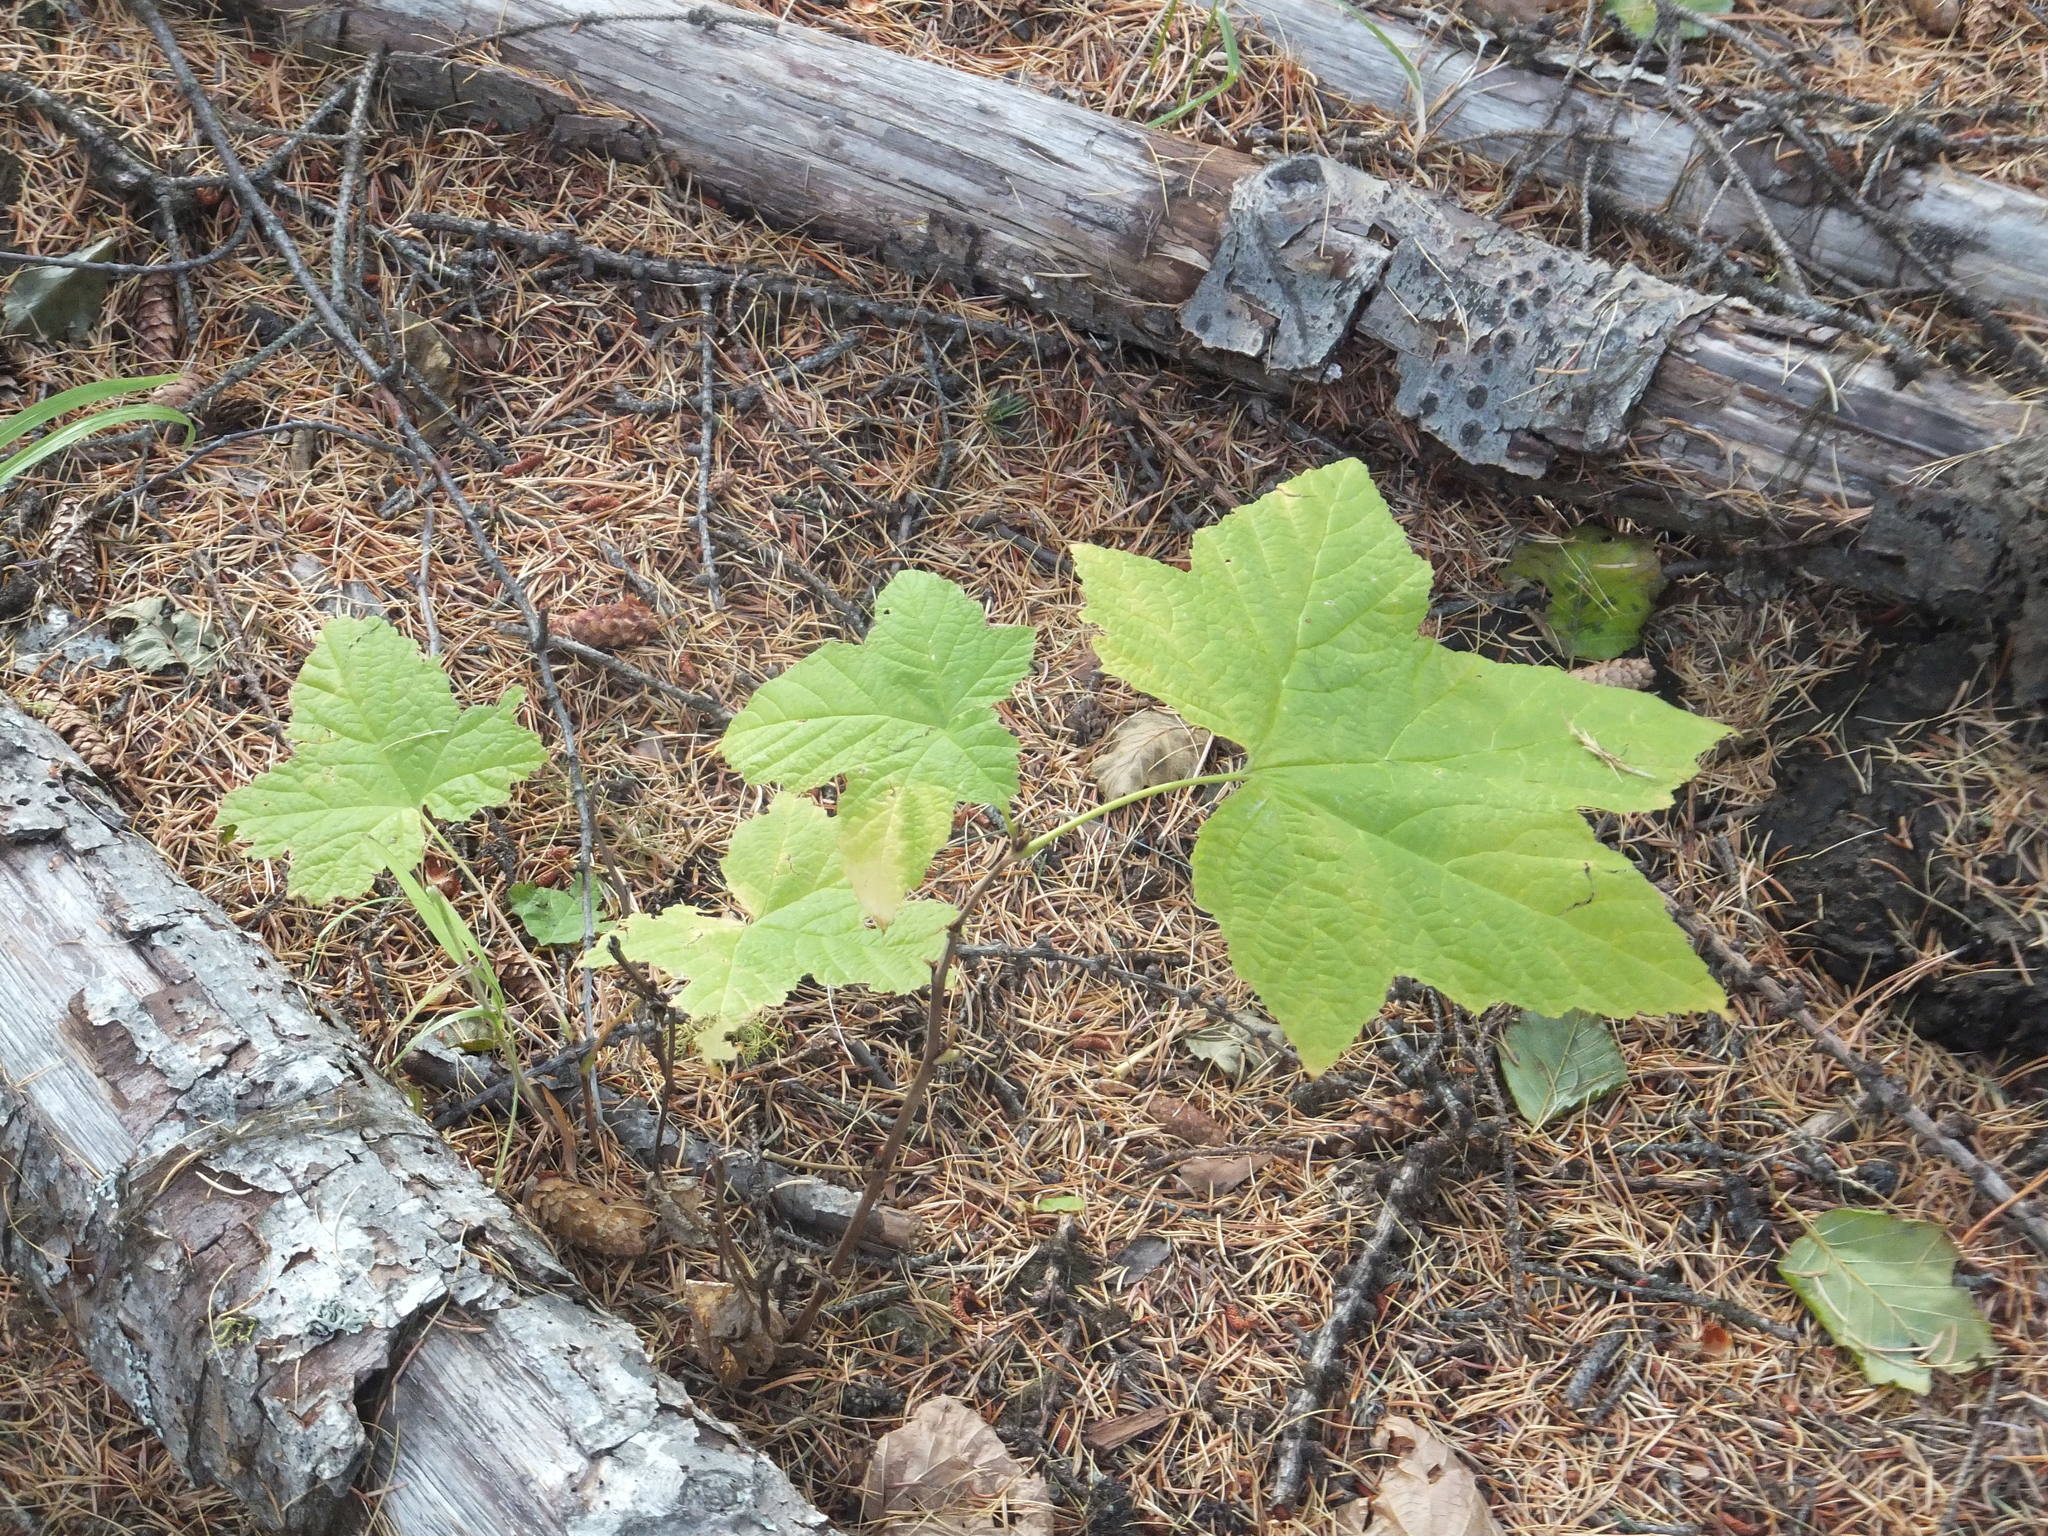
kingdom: Plantae
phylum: Tracheophyta
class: Magnoliopsida
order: Rosales
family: Rosaceae
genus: Rubus
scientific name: Rubus parviflorus
